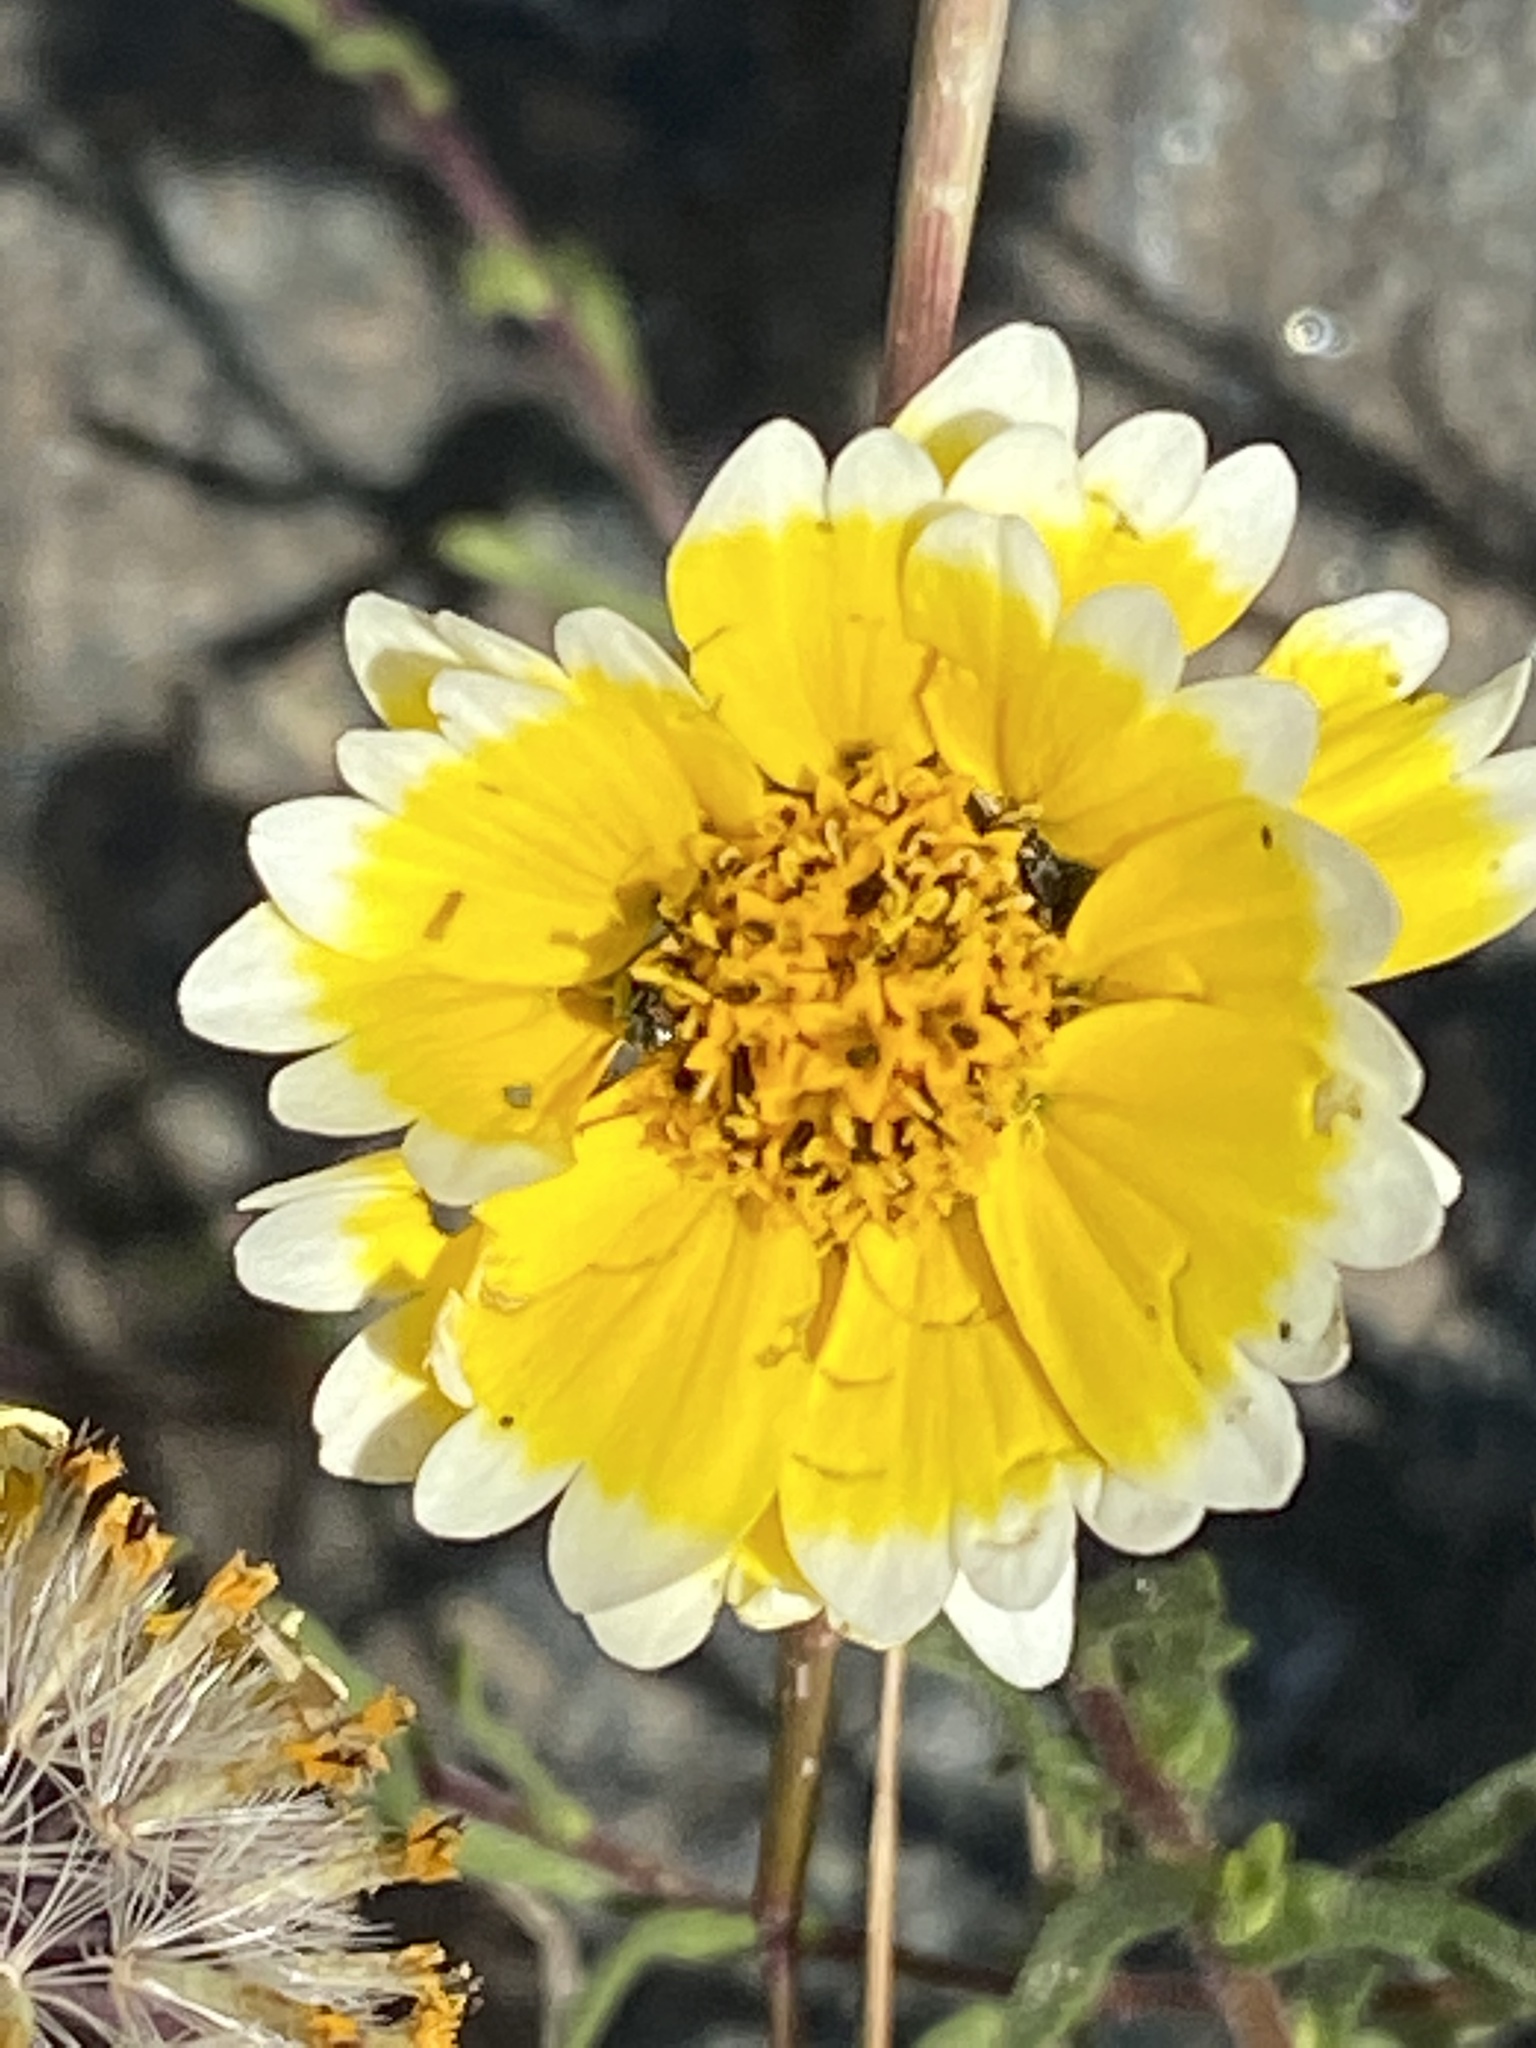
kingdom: Plantae
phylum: Tracheophyta
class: Magnoliopsida
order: Asterales
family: Asteraceae
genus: Layia
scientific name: Layia platyglossa
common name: Tidy-tips
